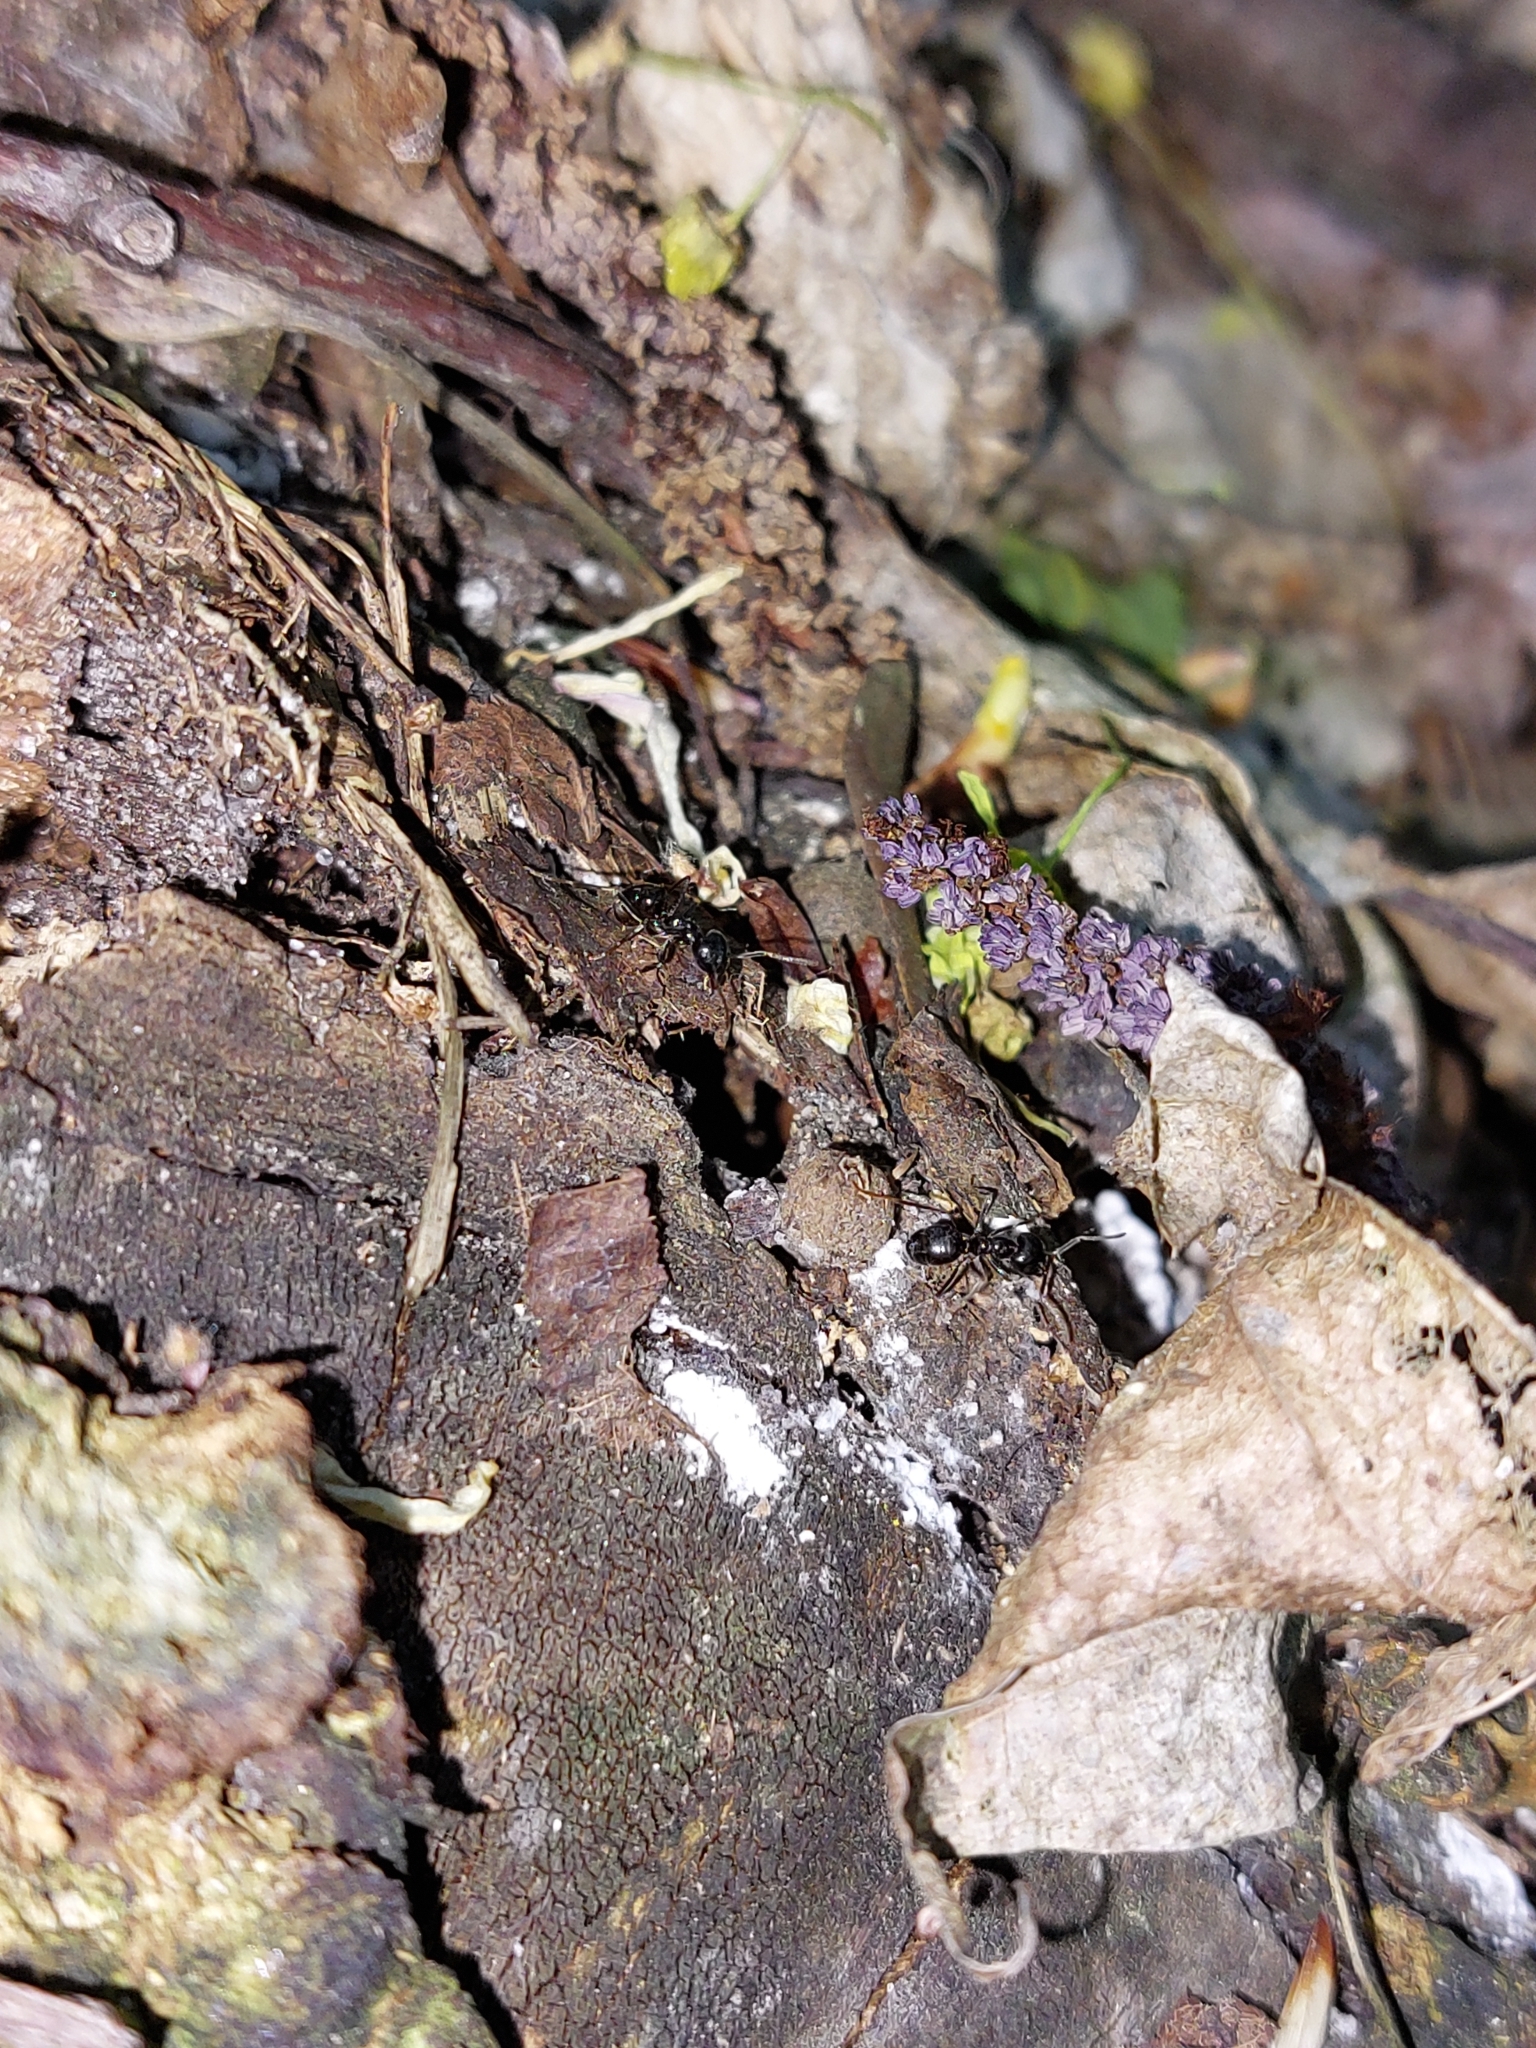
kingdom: Animalia
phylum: Arthropoda
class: Insecta
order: Hymenoptera
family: Formicidae
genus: Lasius
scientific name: Lasius fuliginosus
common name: Jet ant
